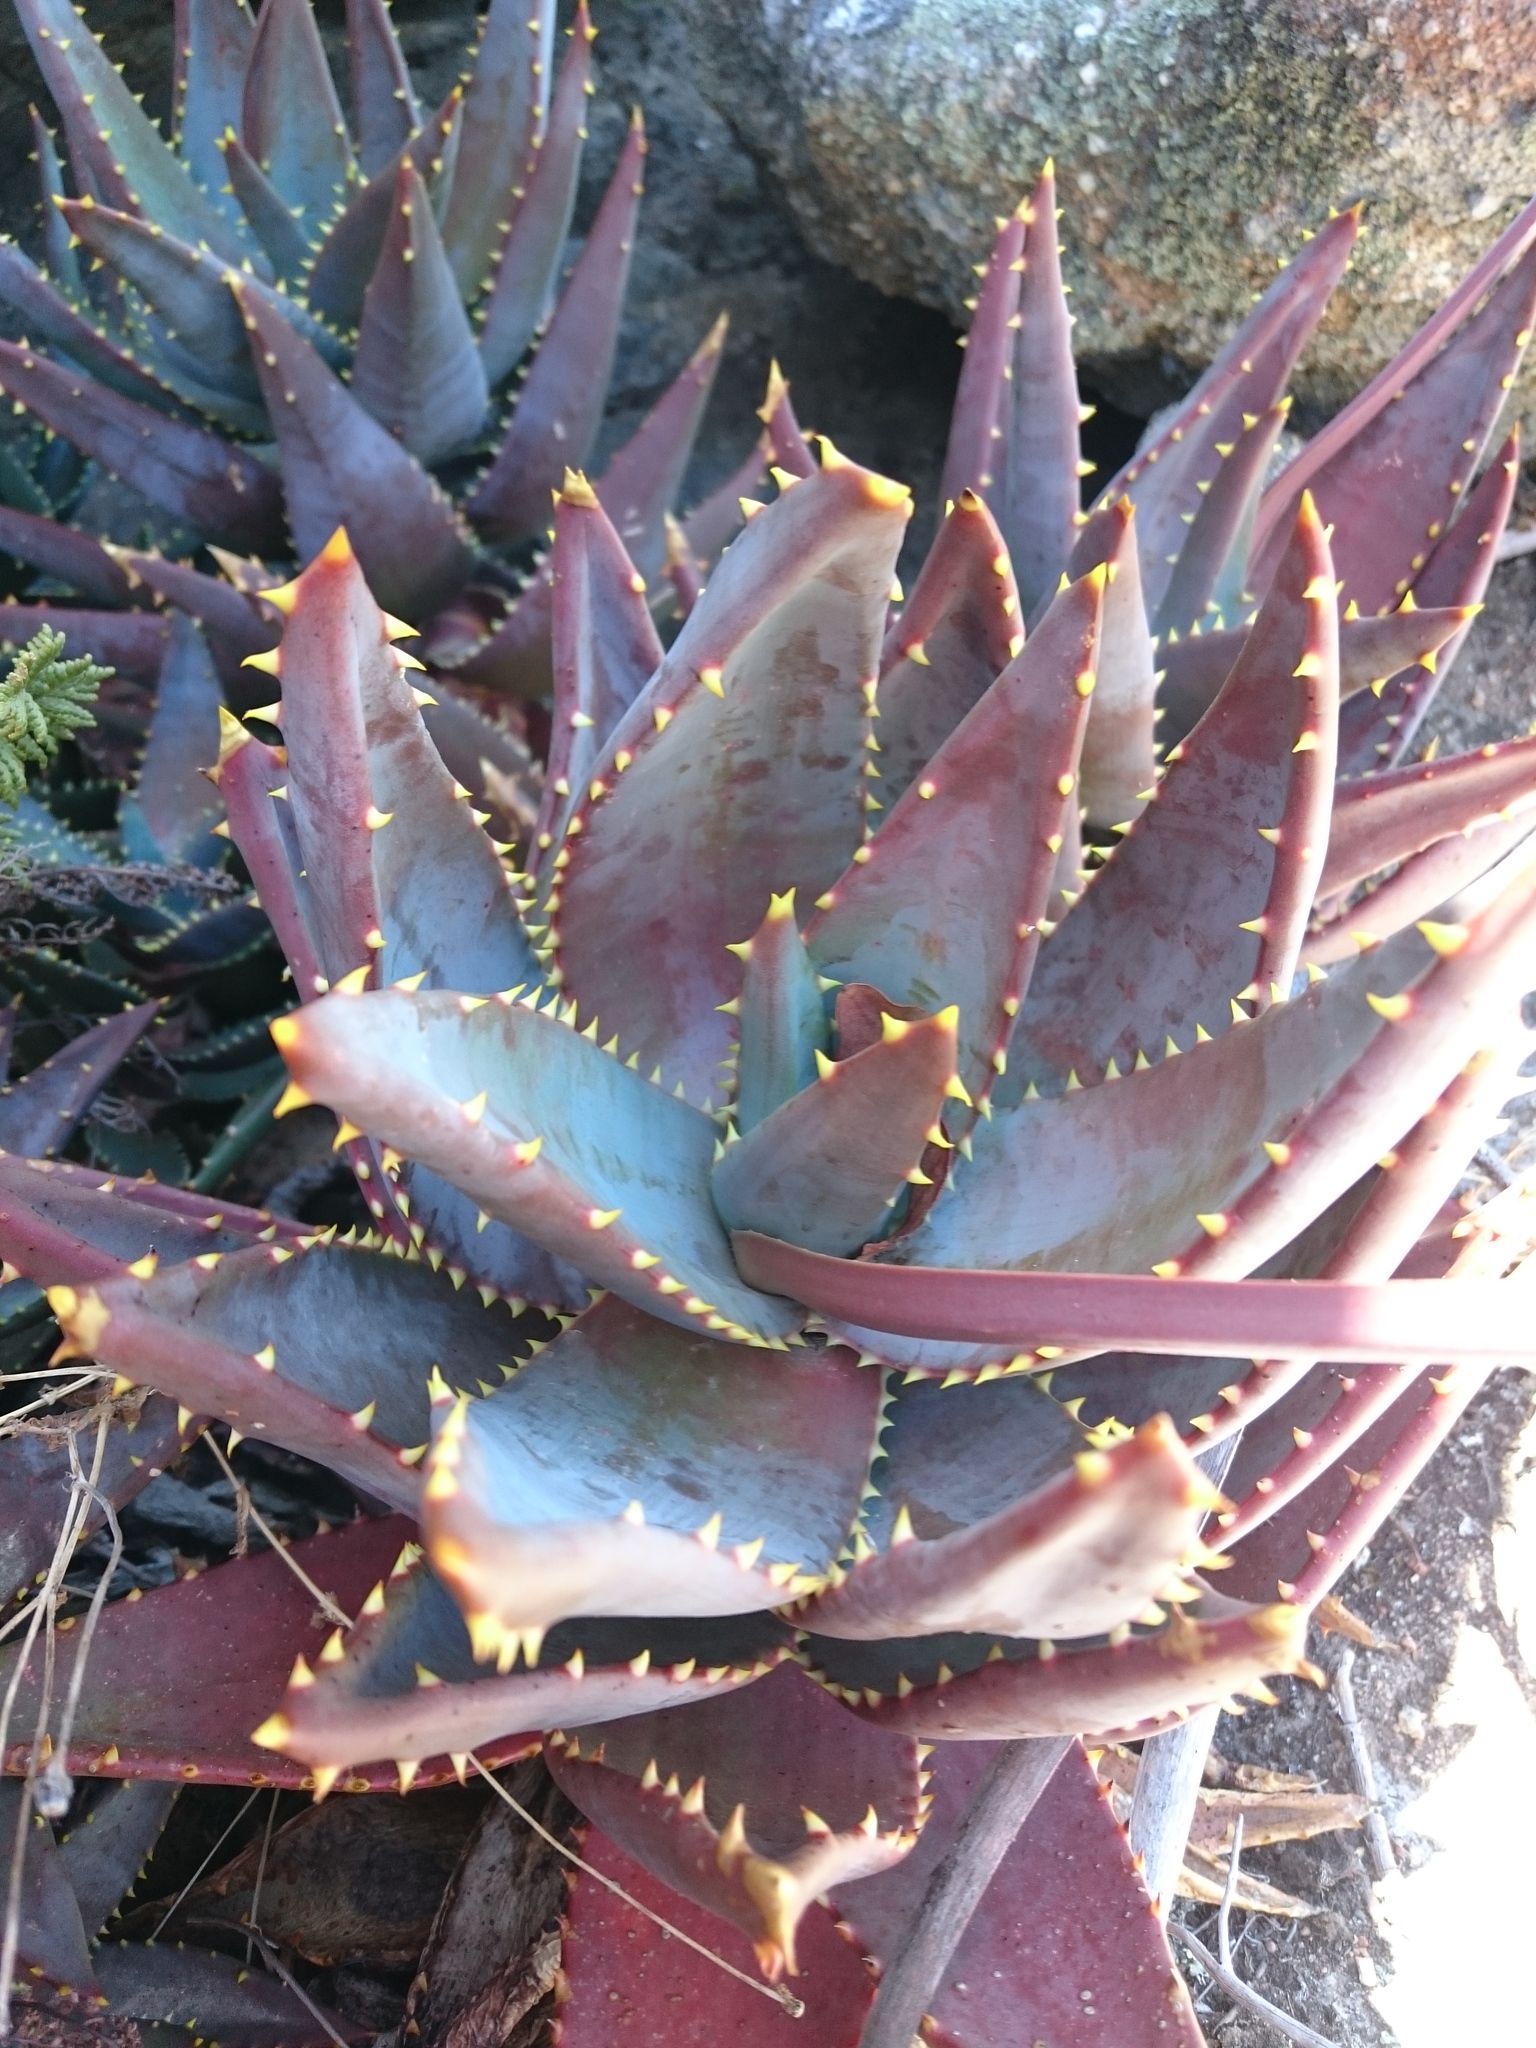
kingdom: Plantae
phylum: Tracheophyta
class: Liliopsida
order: Asparagales
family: Asphodelaceae
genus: Aloe
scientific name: Aloe perfoliata
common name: Mitra aloe
